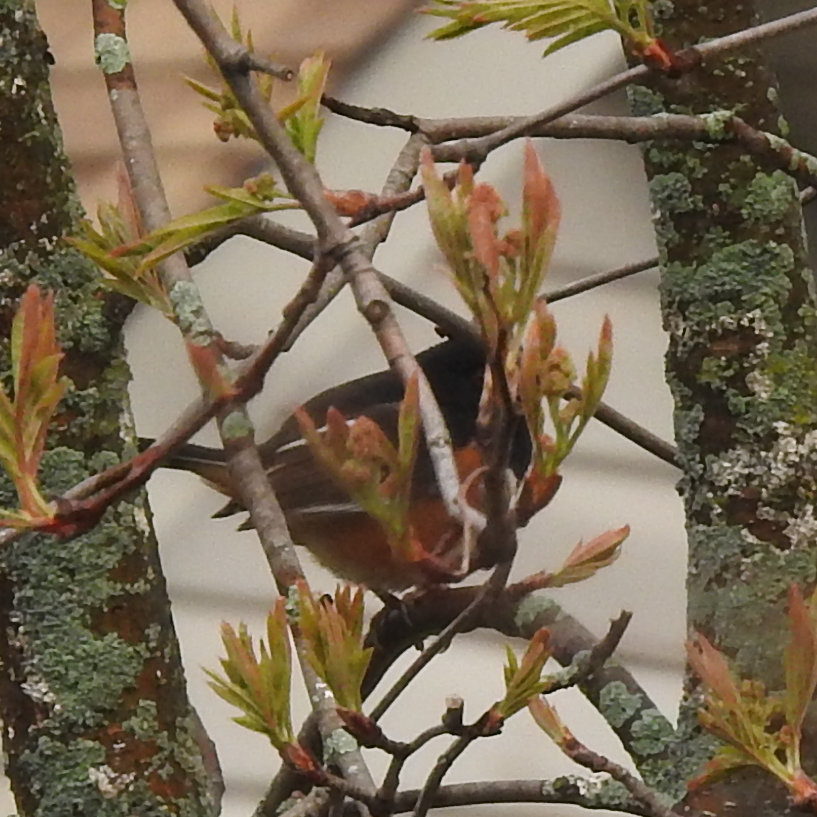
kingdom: Animalia
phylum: Chordata
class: Aves
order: Passeriformes
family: Passerellidae
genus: Pipilo
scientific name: Pipilo erythrophthalmus
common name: Eastern towhee
